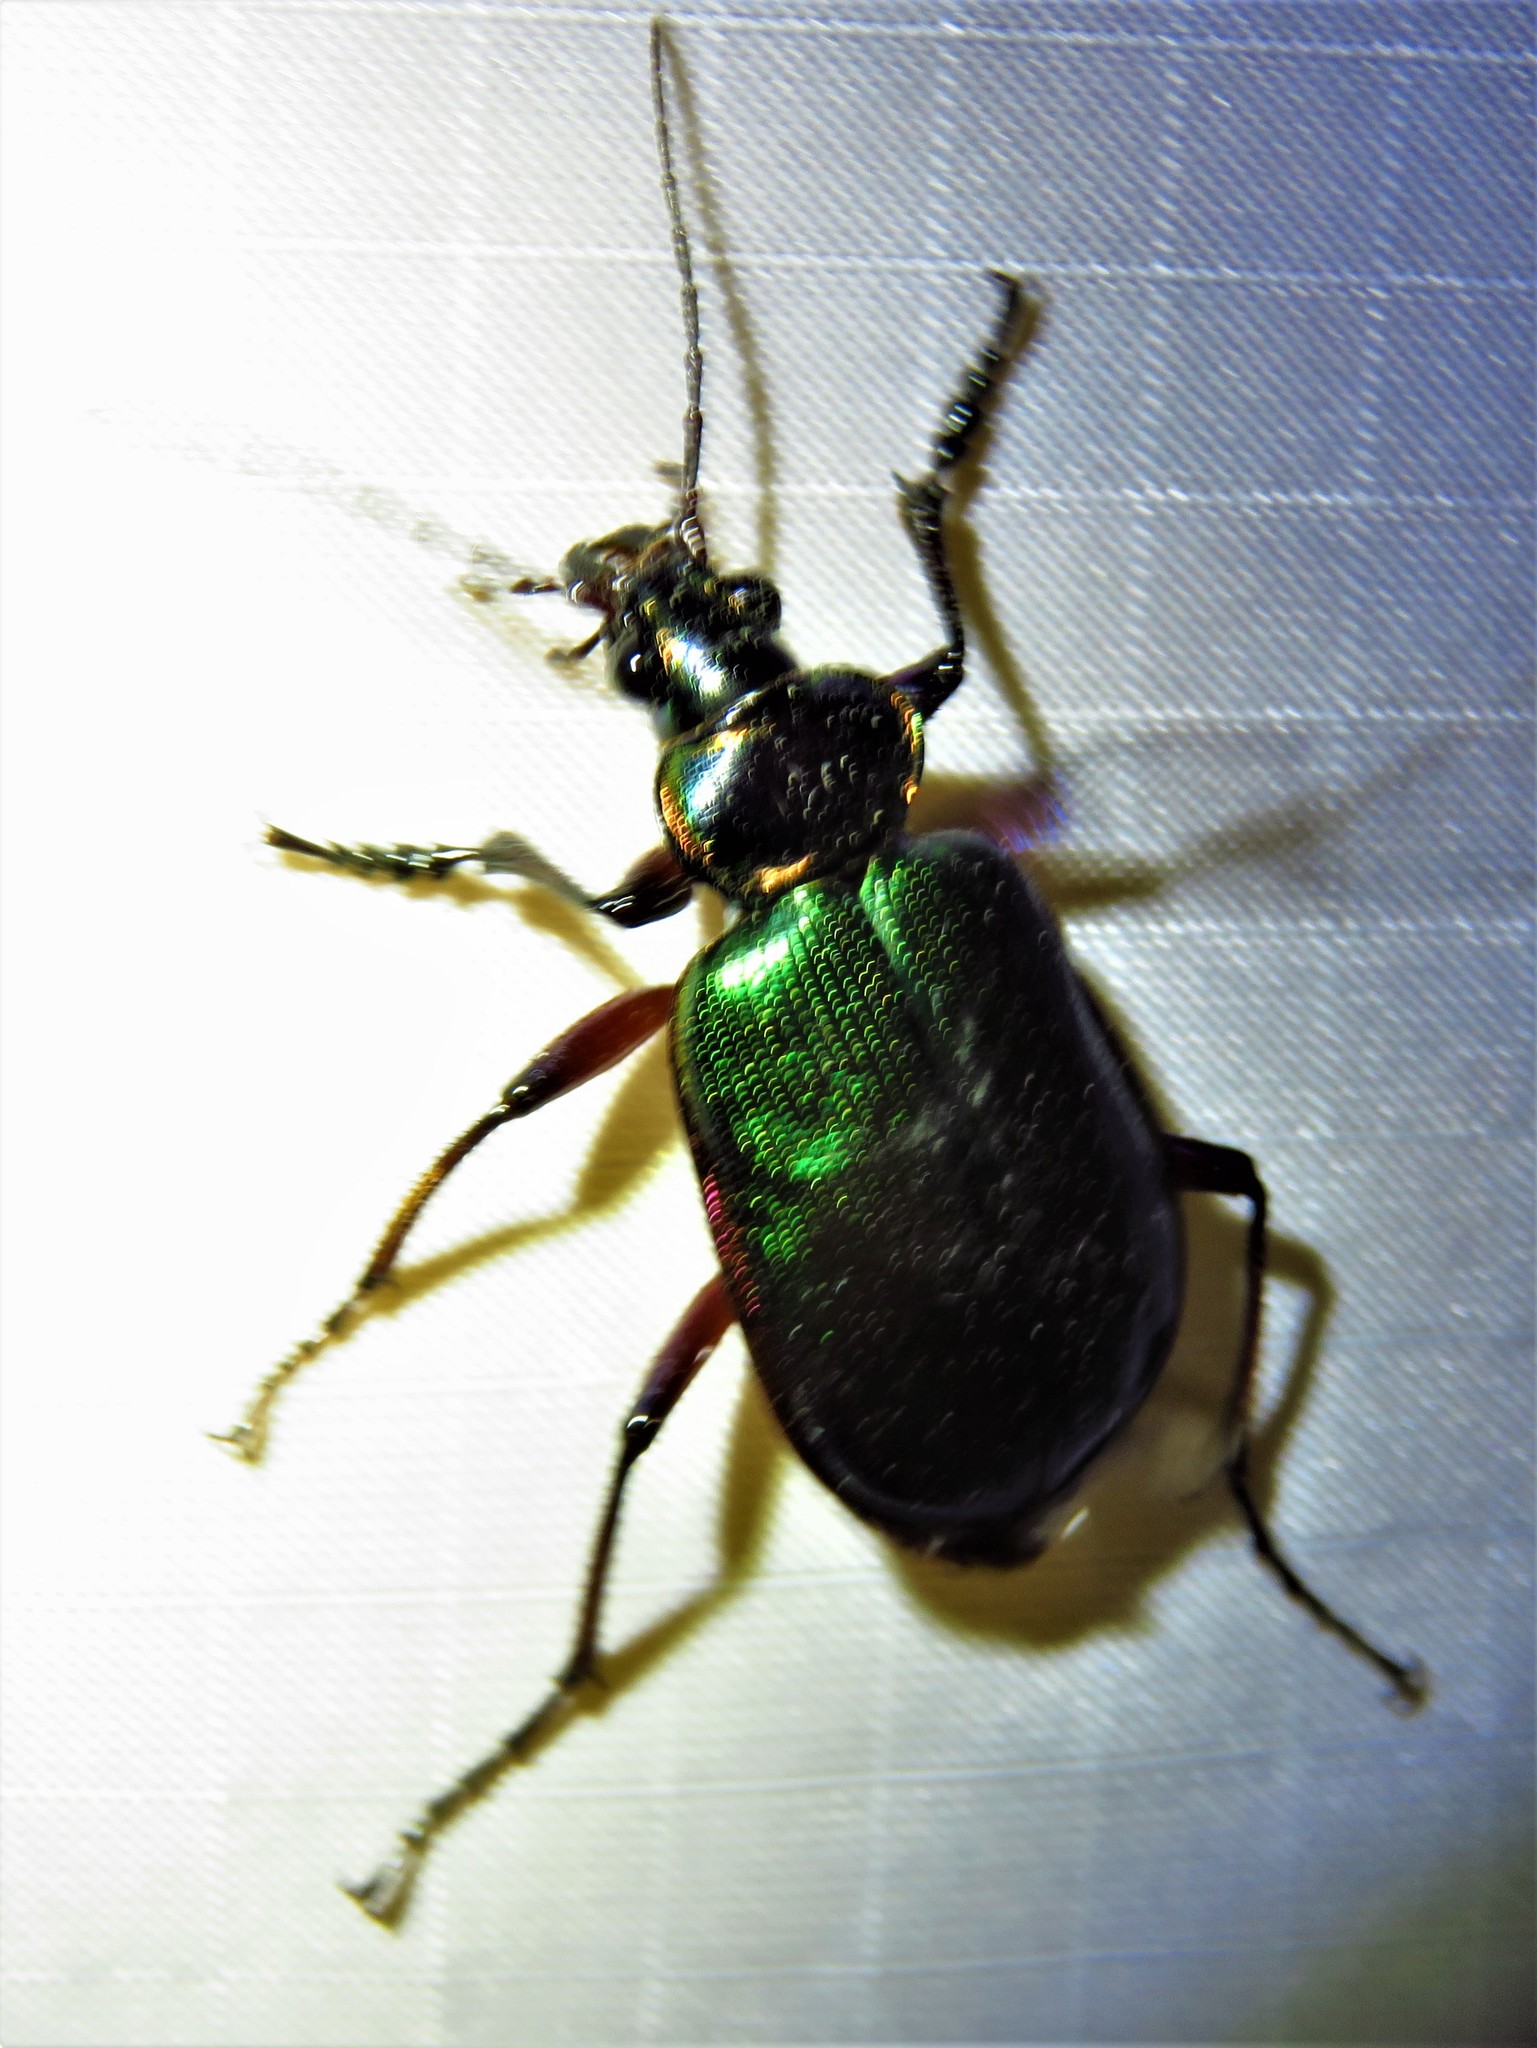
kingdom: Animalia
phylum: Arthropoda
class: Insecta
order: Coleoptera
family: Carabidae
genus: Calosoma
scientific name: Calosoma scrutator
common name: Fiery searcher beetle
